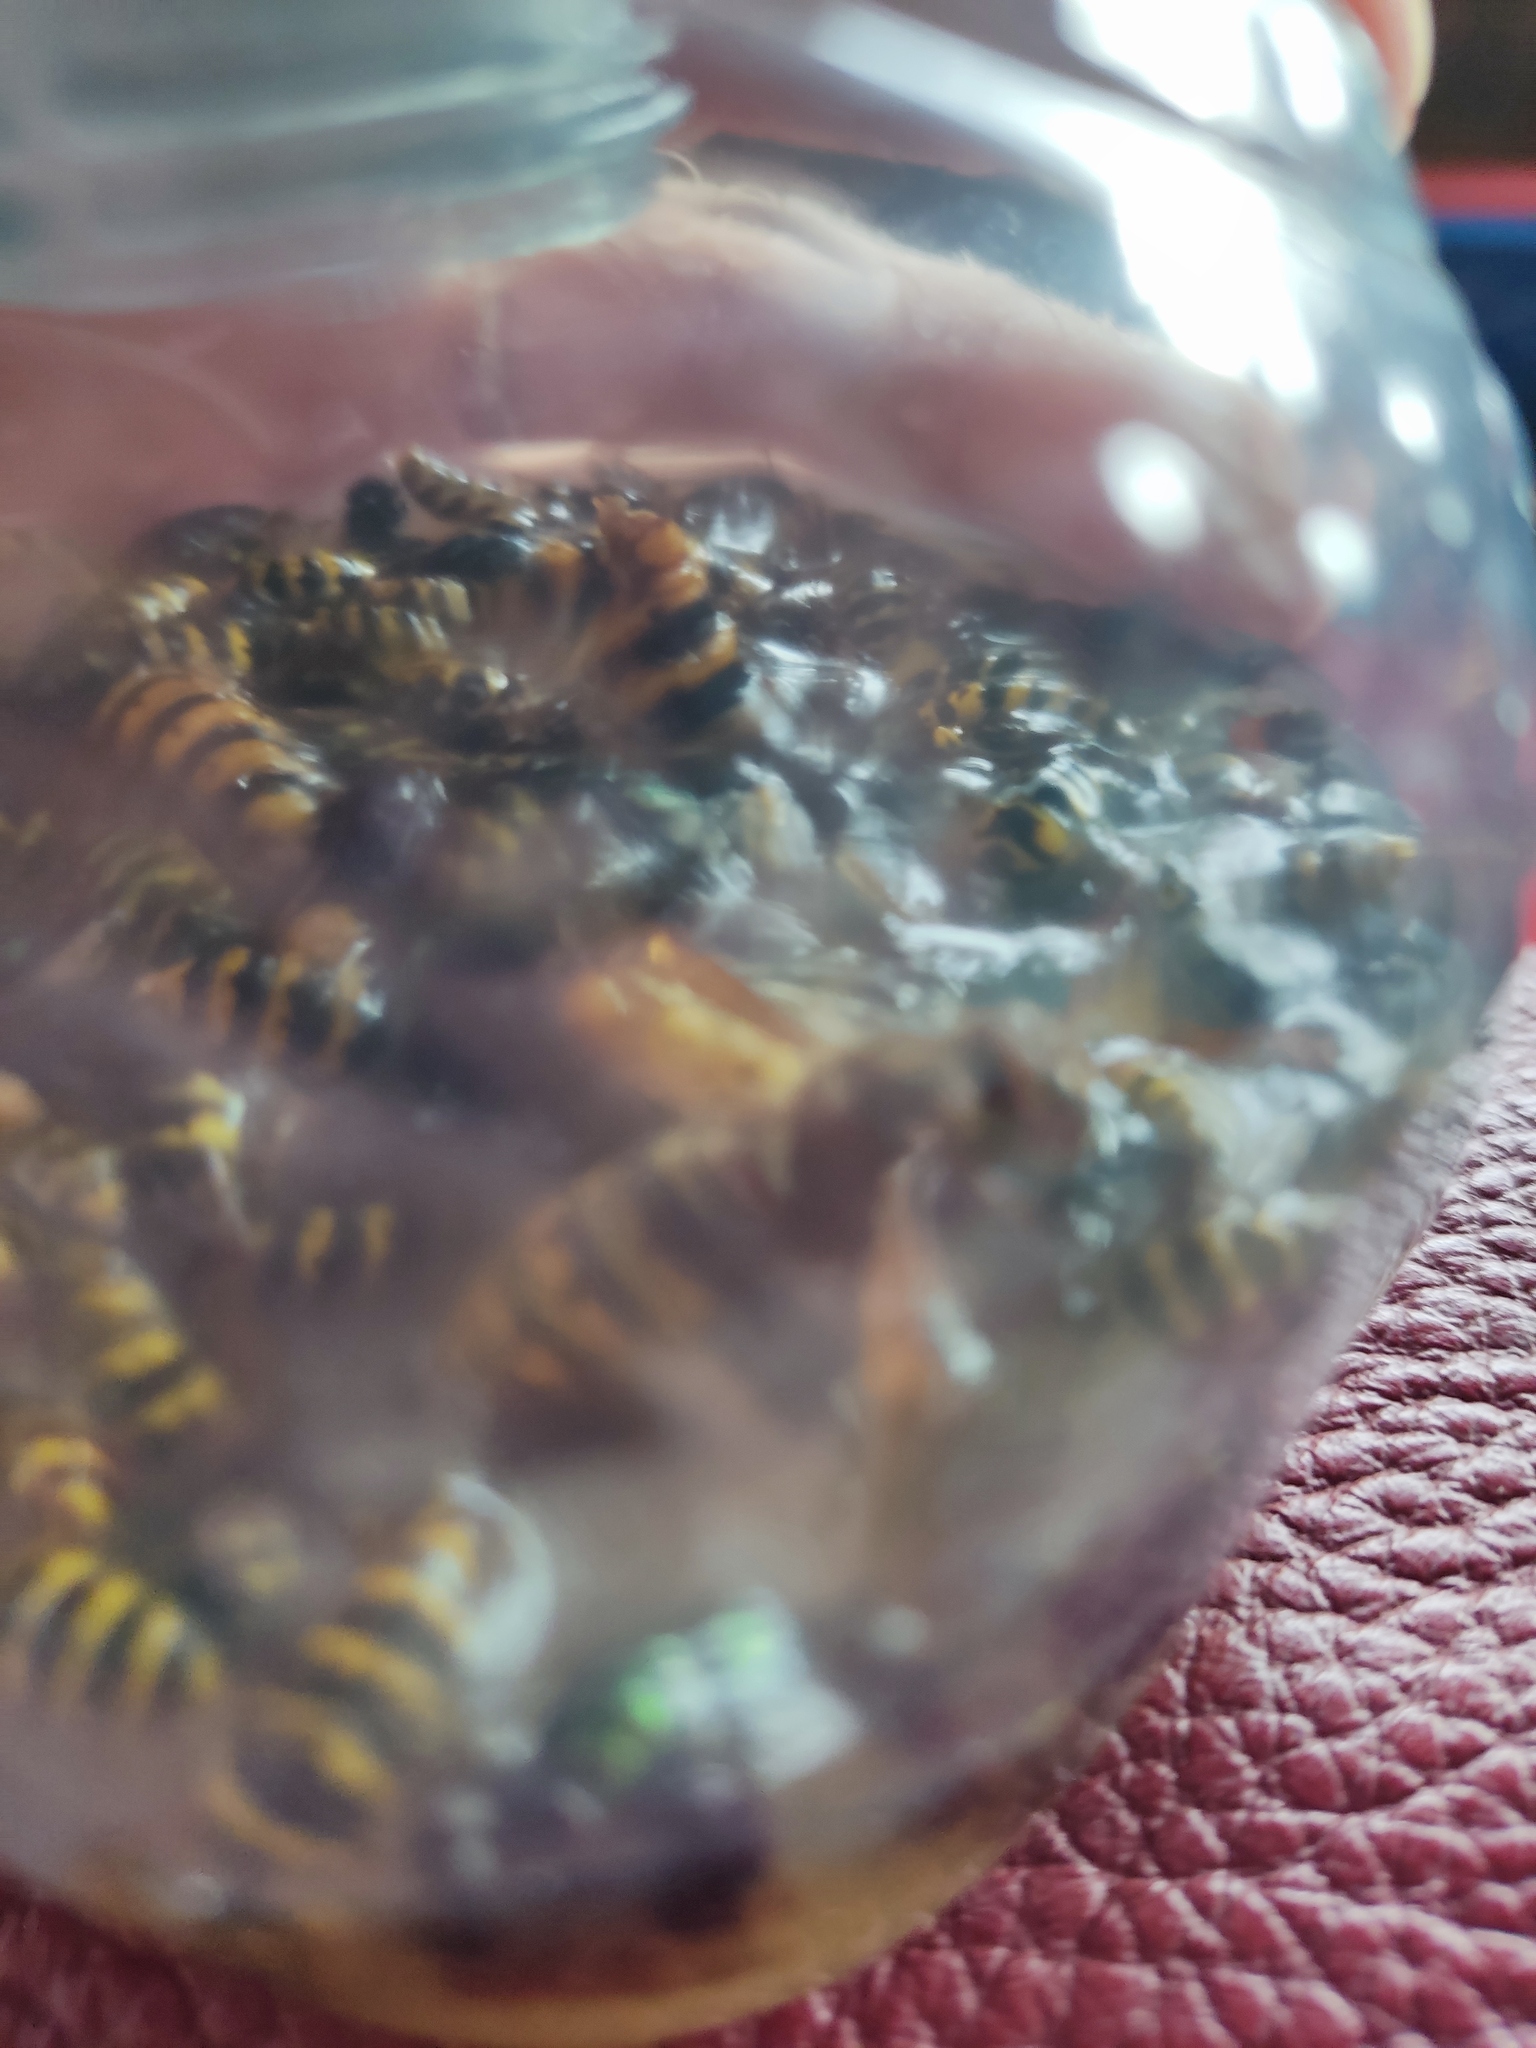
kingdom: Animalia
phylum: Arthropoda
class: Insecta
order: Hymenoptera
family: Vespidae
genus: Vespa
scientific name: Vespa crabro
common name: Hornet
